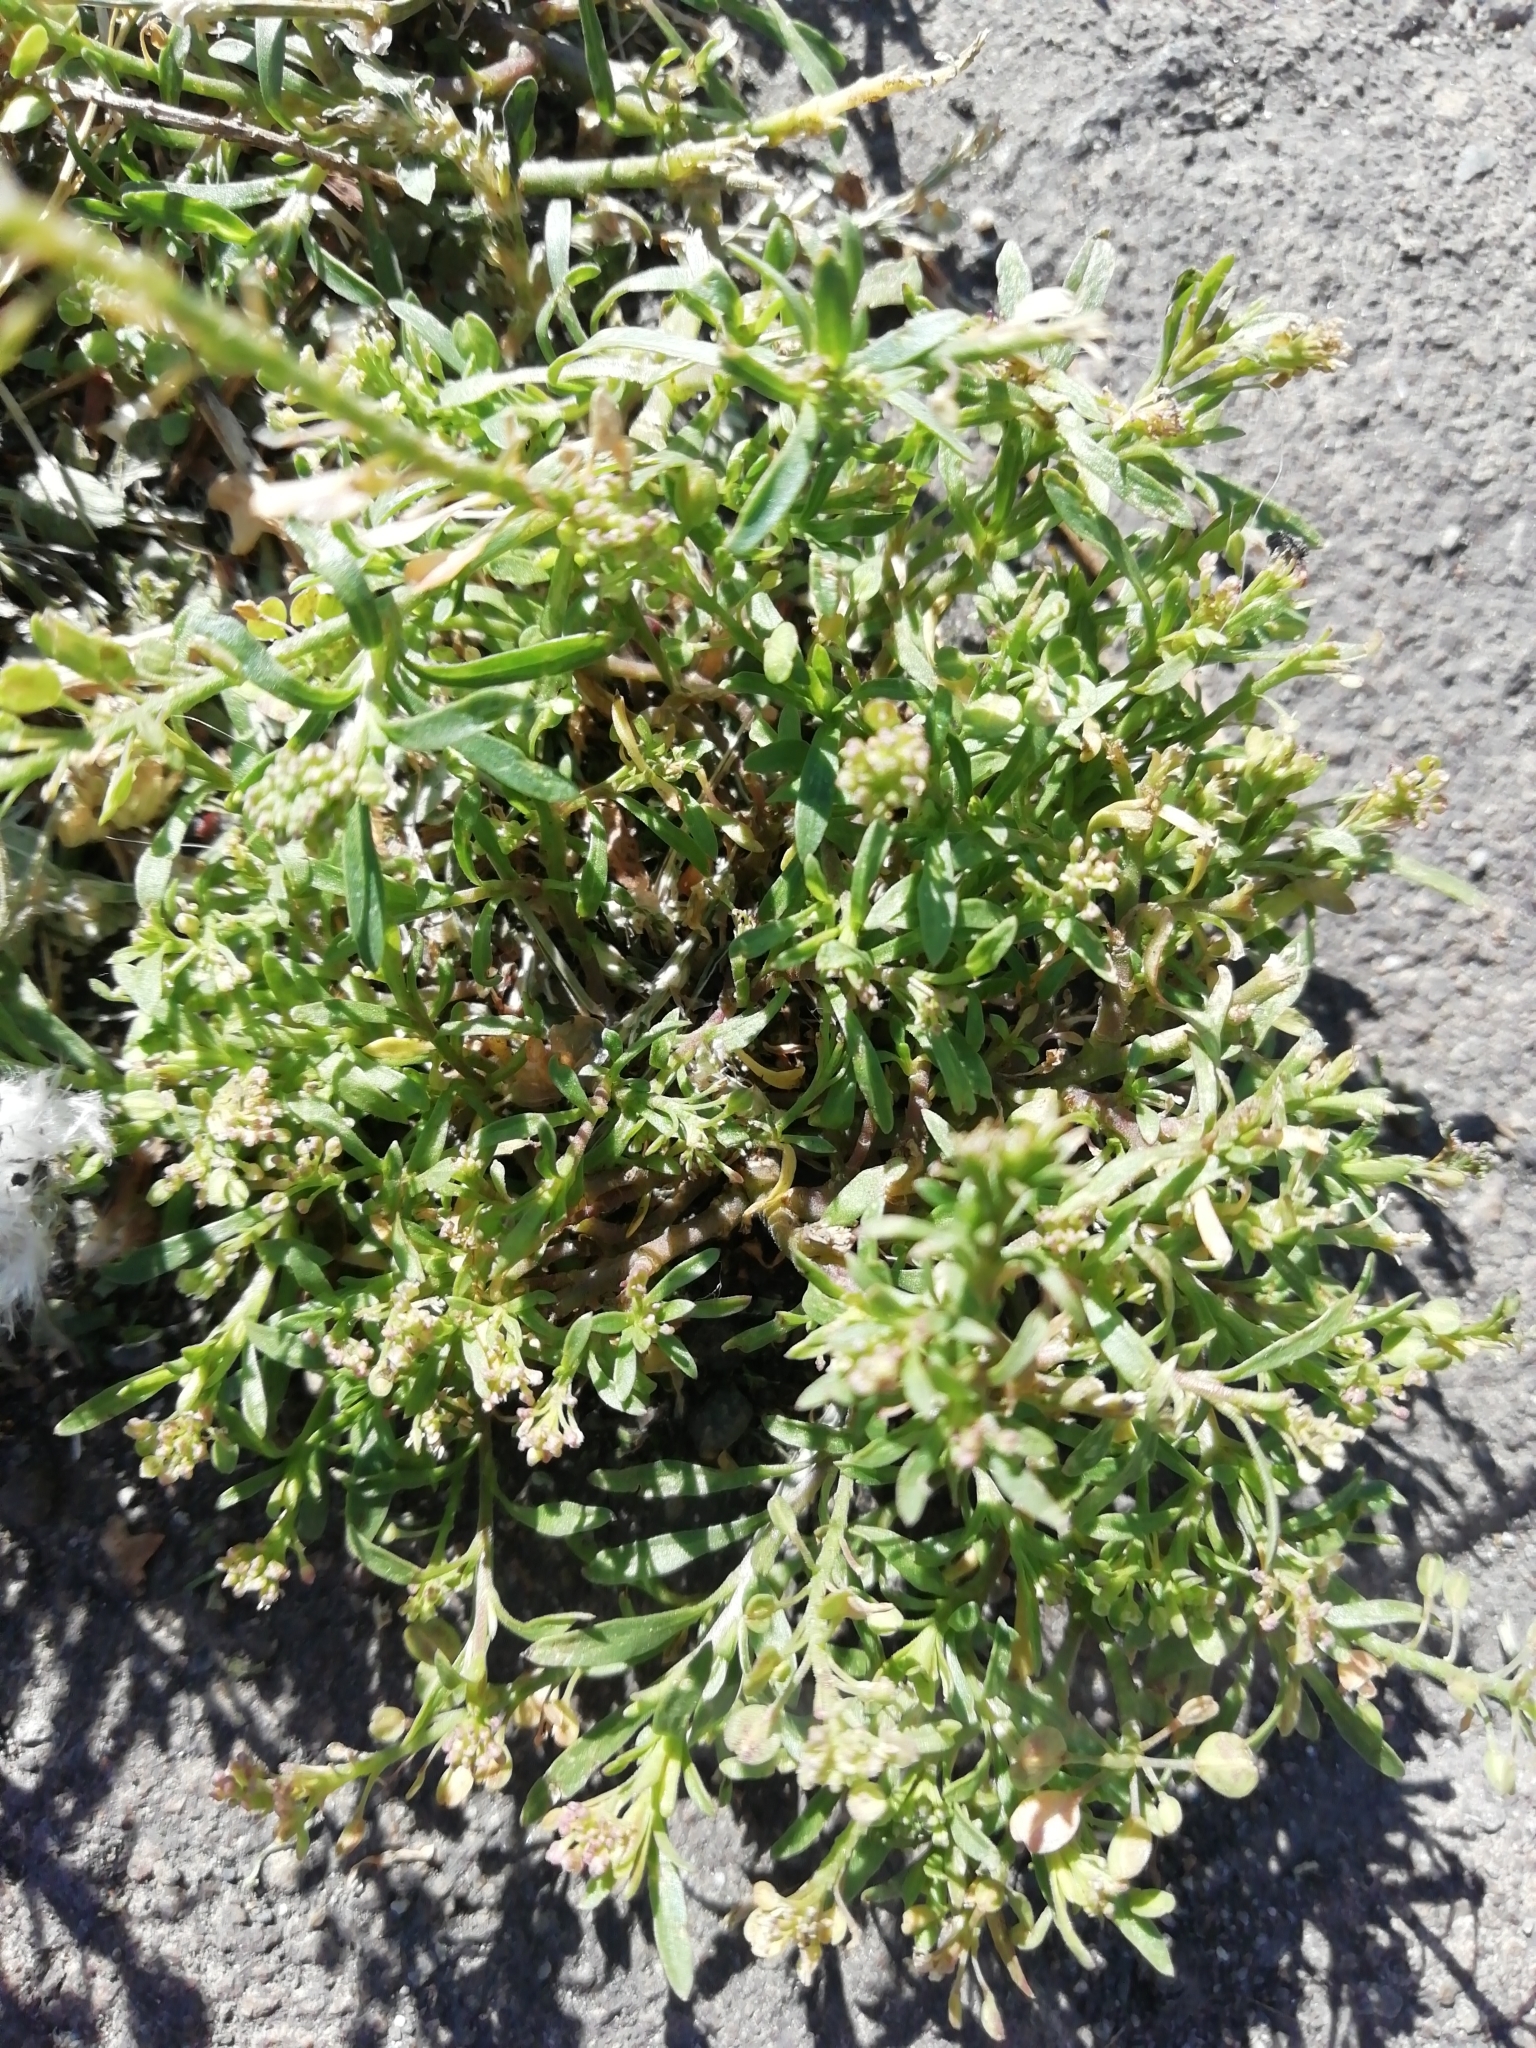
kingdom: Plantae
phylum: Tracheophyta
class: Magnoliopsida
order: Brassicales
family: Brassicaceae
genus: Lepidium
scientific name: Lepidium densiflorum
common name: Miner's pepperwort
